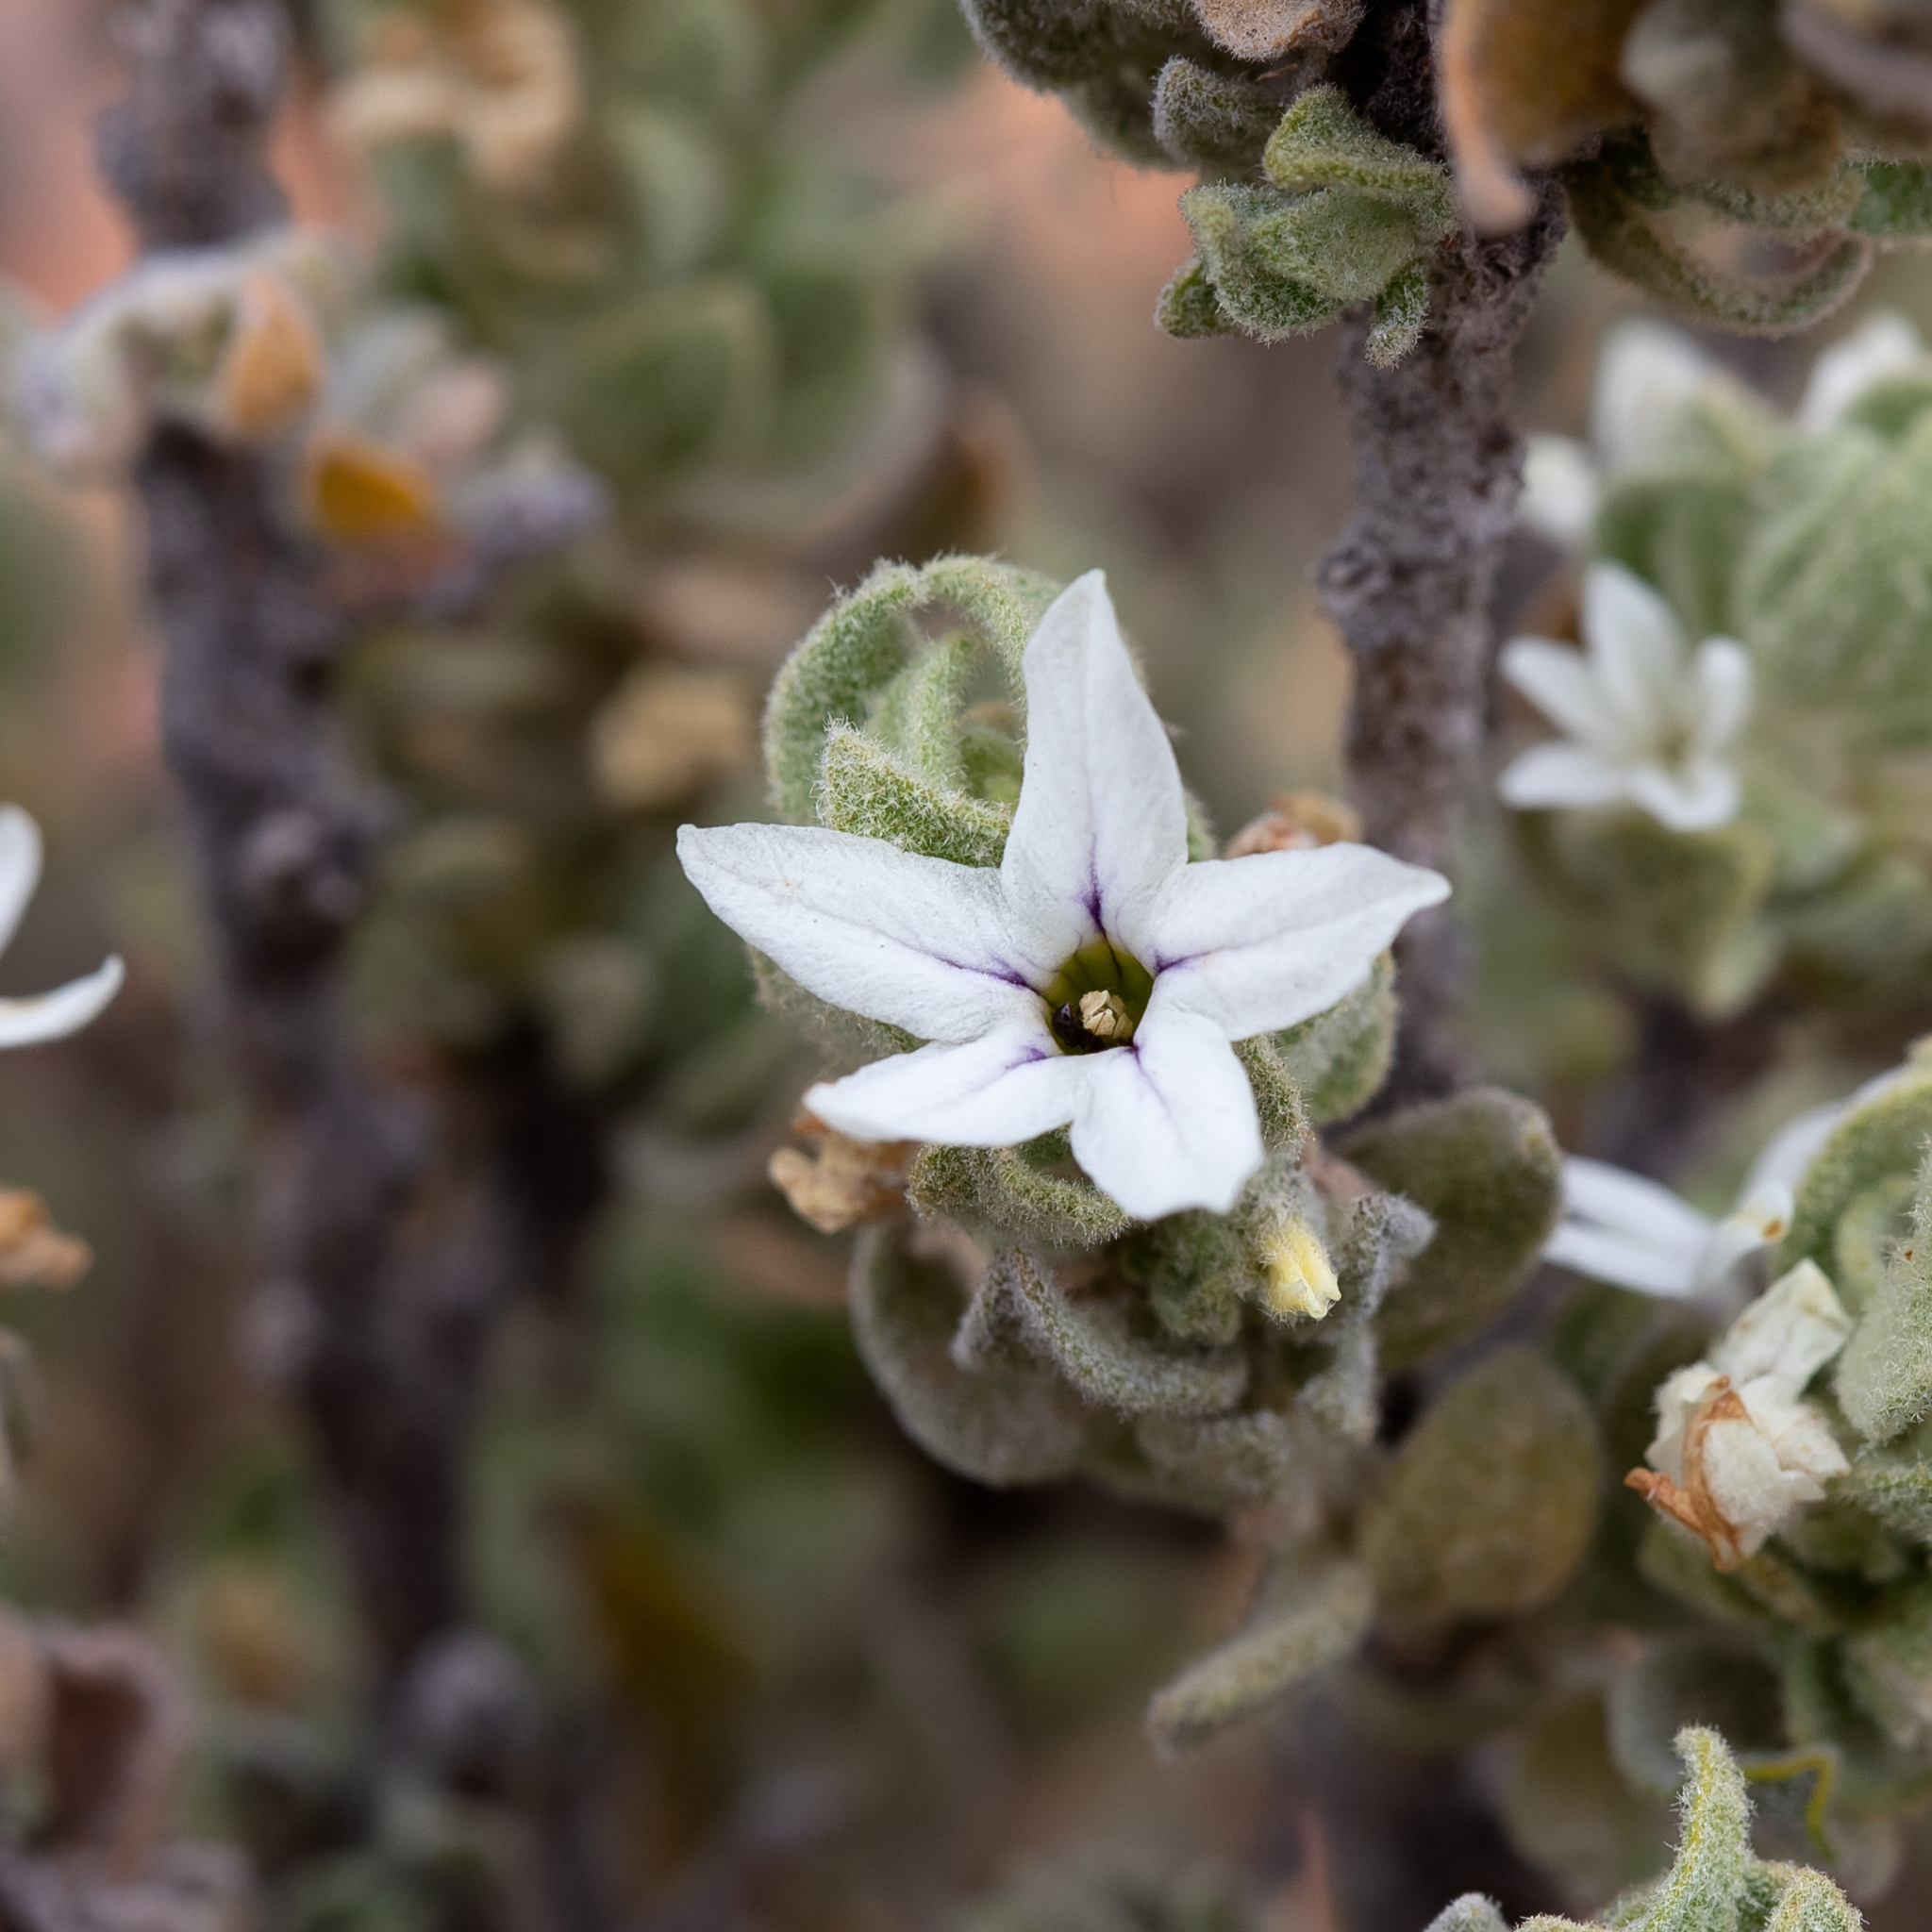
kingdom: Plantae
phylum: Tracheophyta
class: Magnoliopsida
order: Solanales
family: Solanaceae
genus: Grammosolen
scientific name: Grammosolen dixonii
